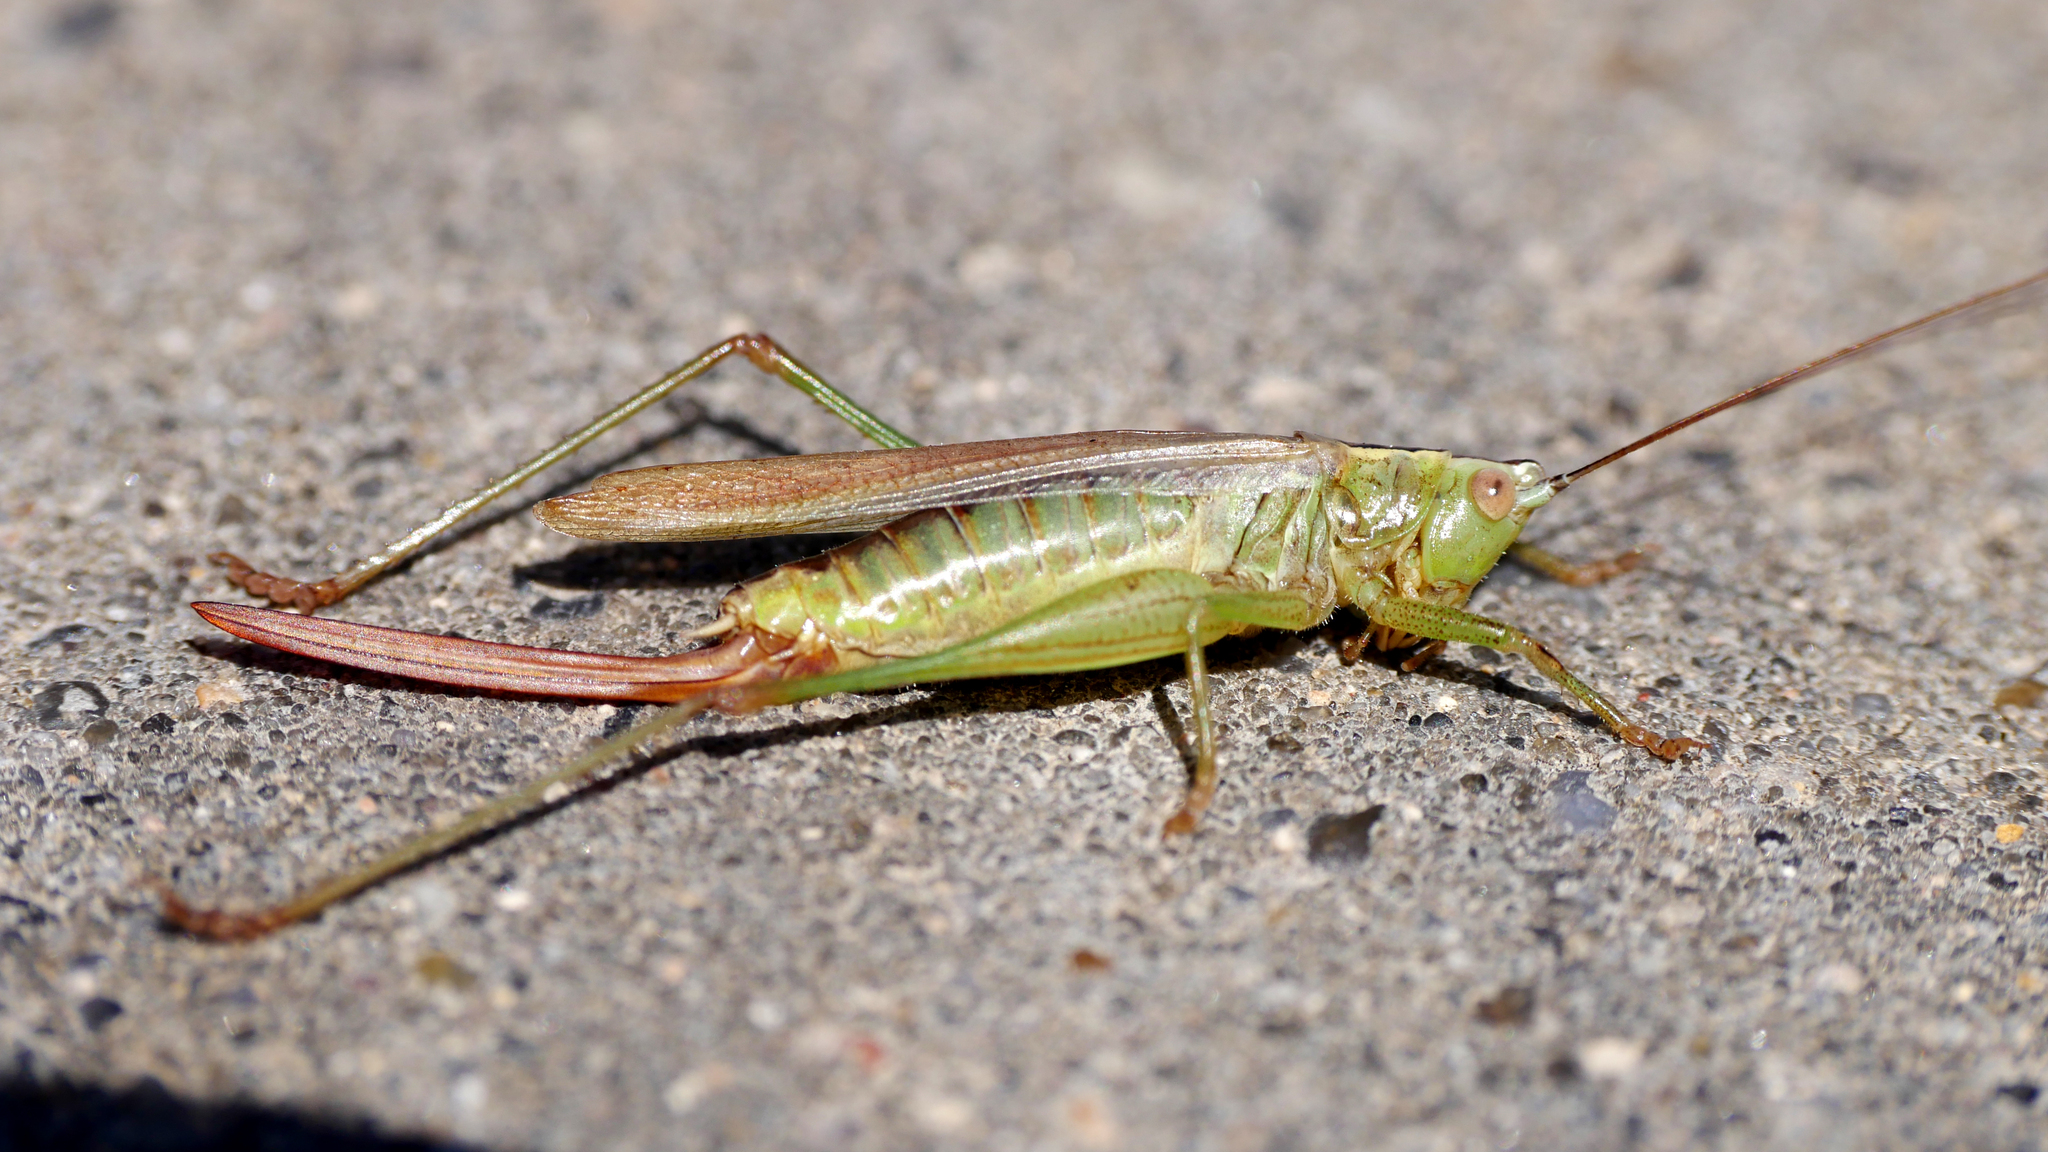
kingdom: Animalia
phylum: Arthropoda
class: Insecta
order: Orthoptera
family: Tettigoniidae
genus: Conocephalus
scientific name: Conocephalus fuscus
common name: Long-winged conehead
